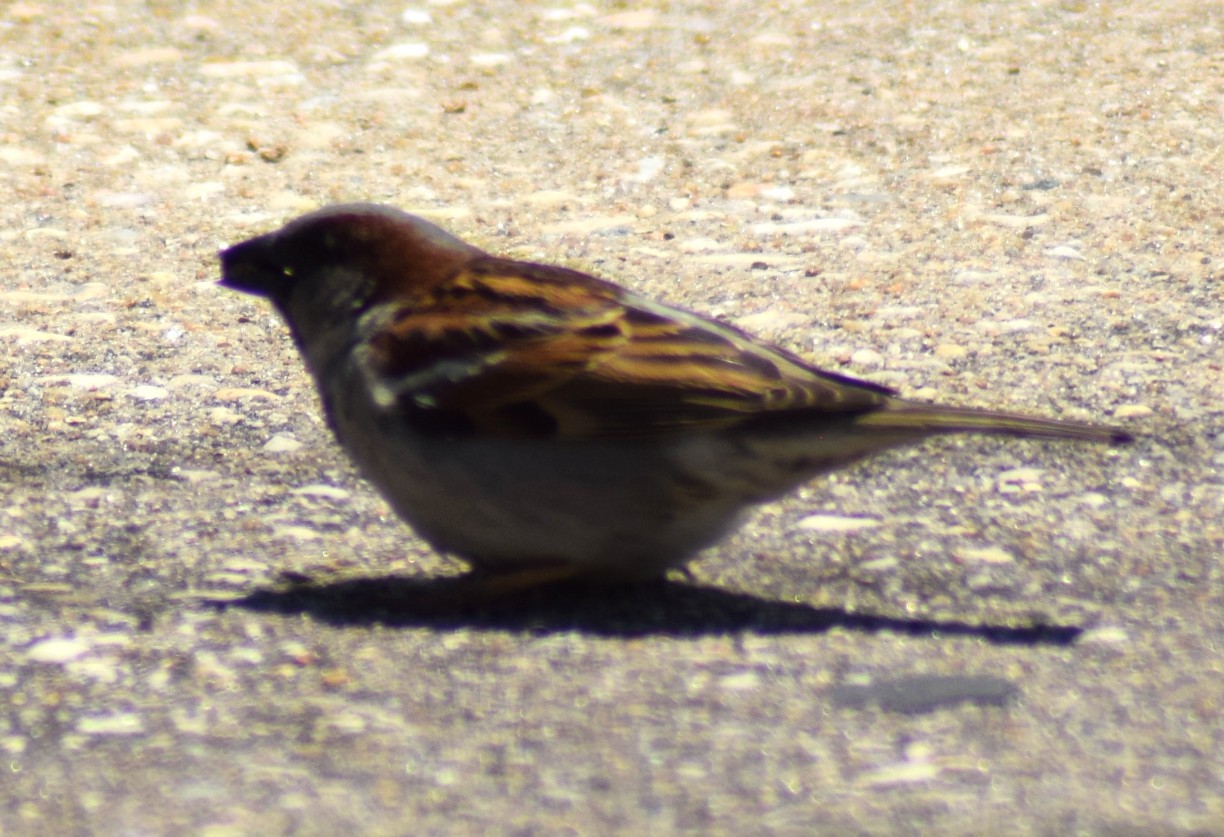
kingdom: Animalia
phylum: Chordata
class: Aves
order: Passeriformes
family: Passeridae
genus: Passer
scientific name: Passer domesticus
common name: House sparrow
